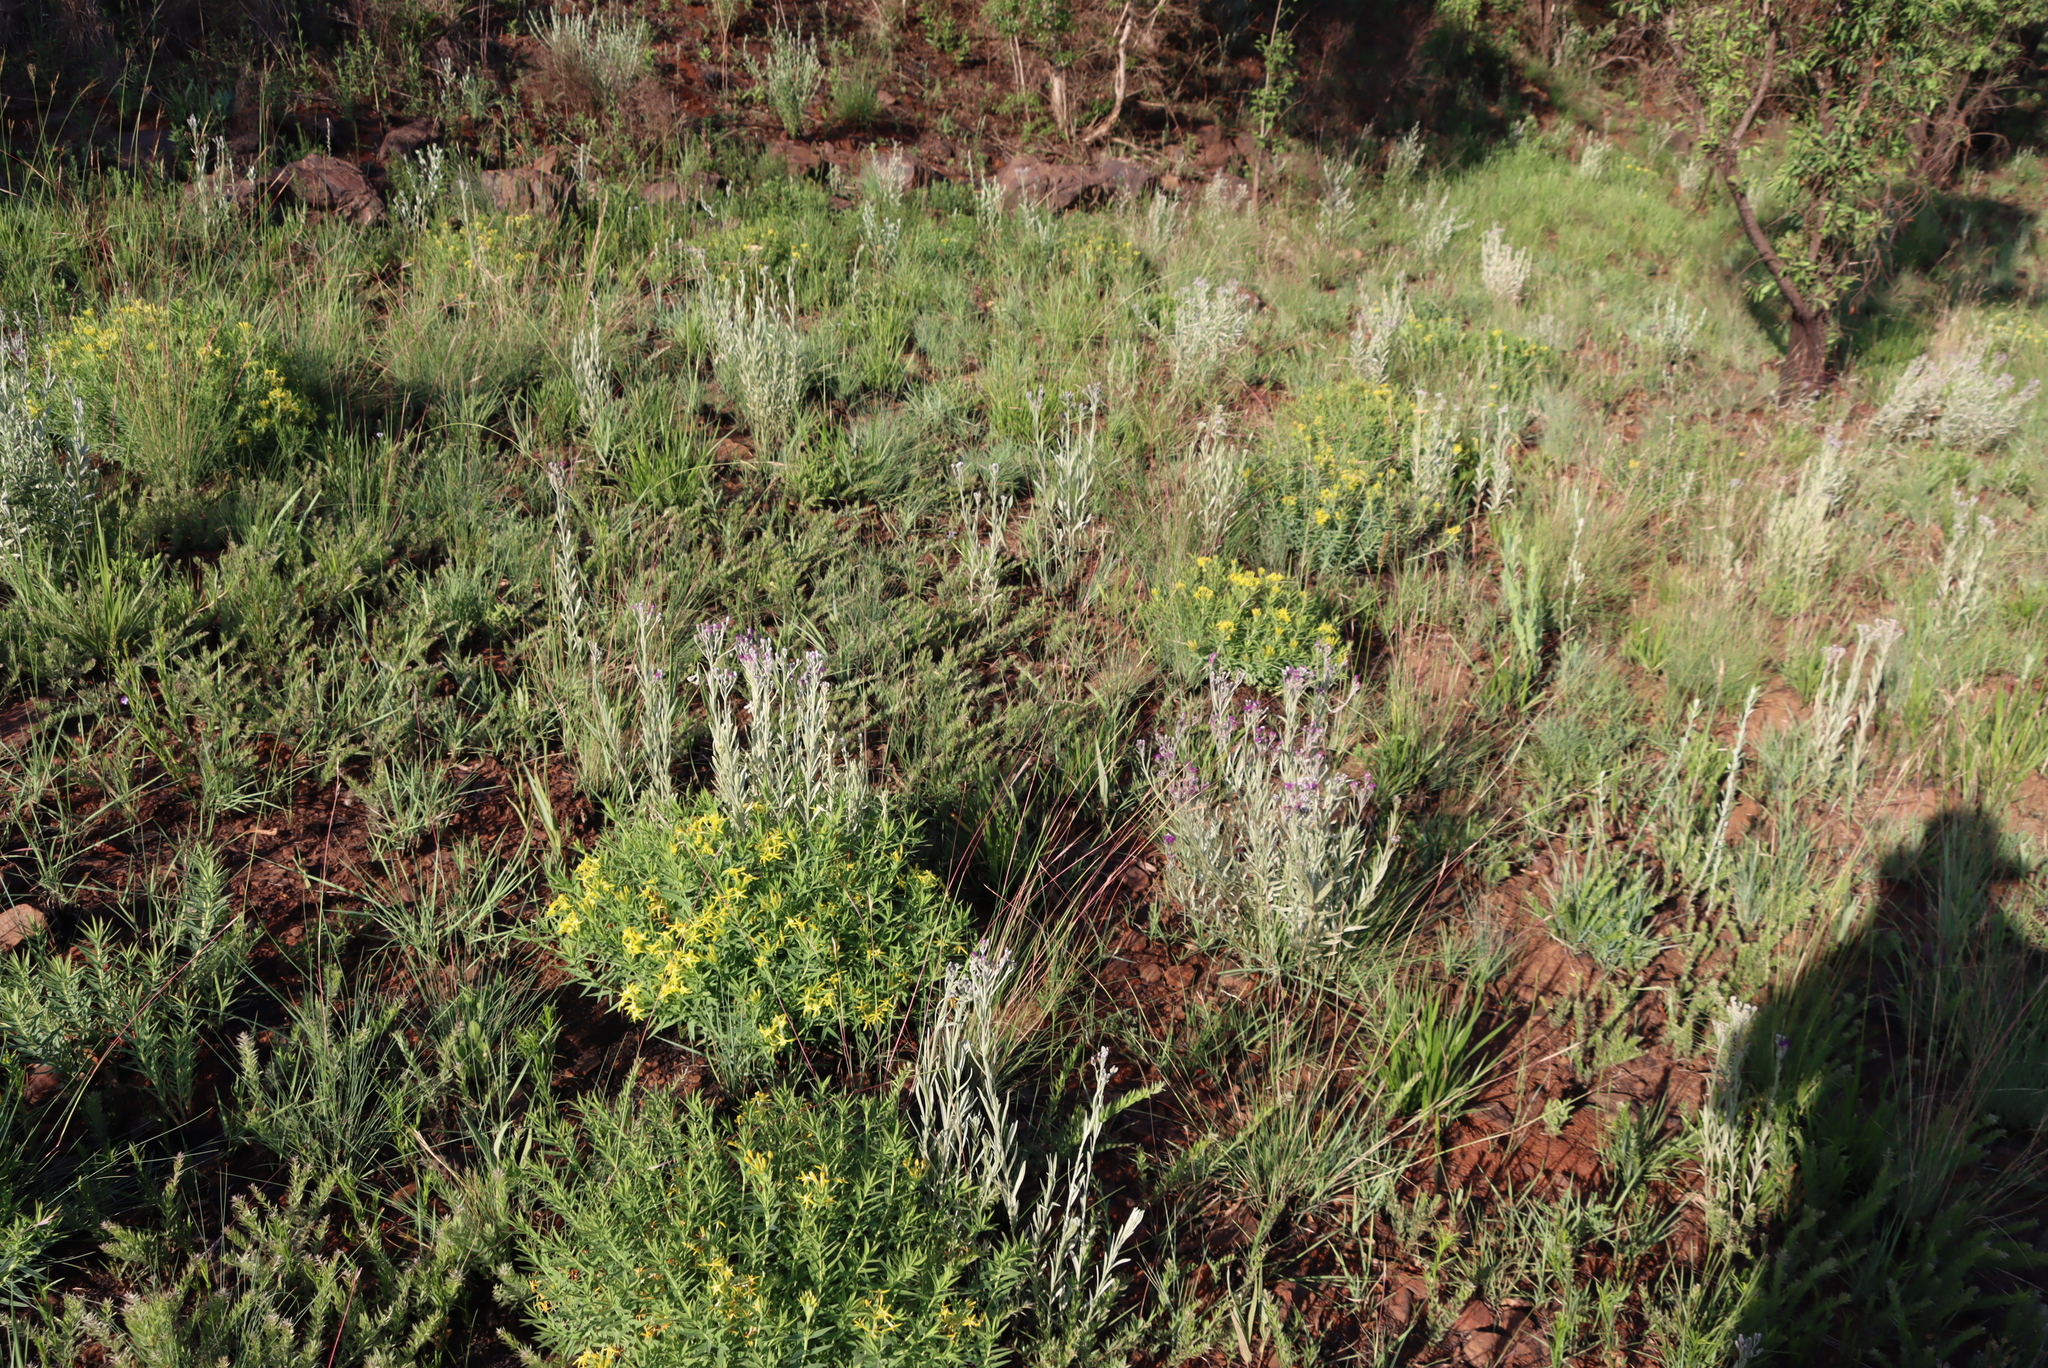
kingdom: Plantae
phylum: Tracheophyta
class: Magnoliopsida
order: Asterales
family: Asteraceae
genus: Hilliardiella
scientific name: Hilliardiella aristata
